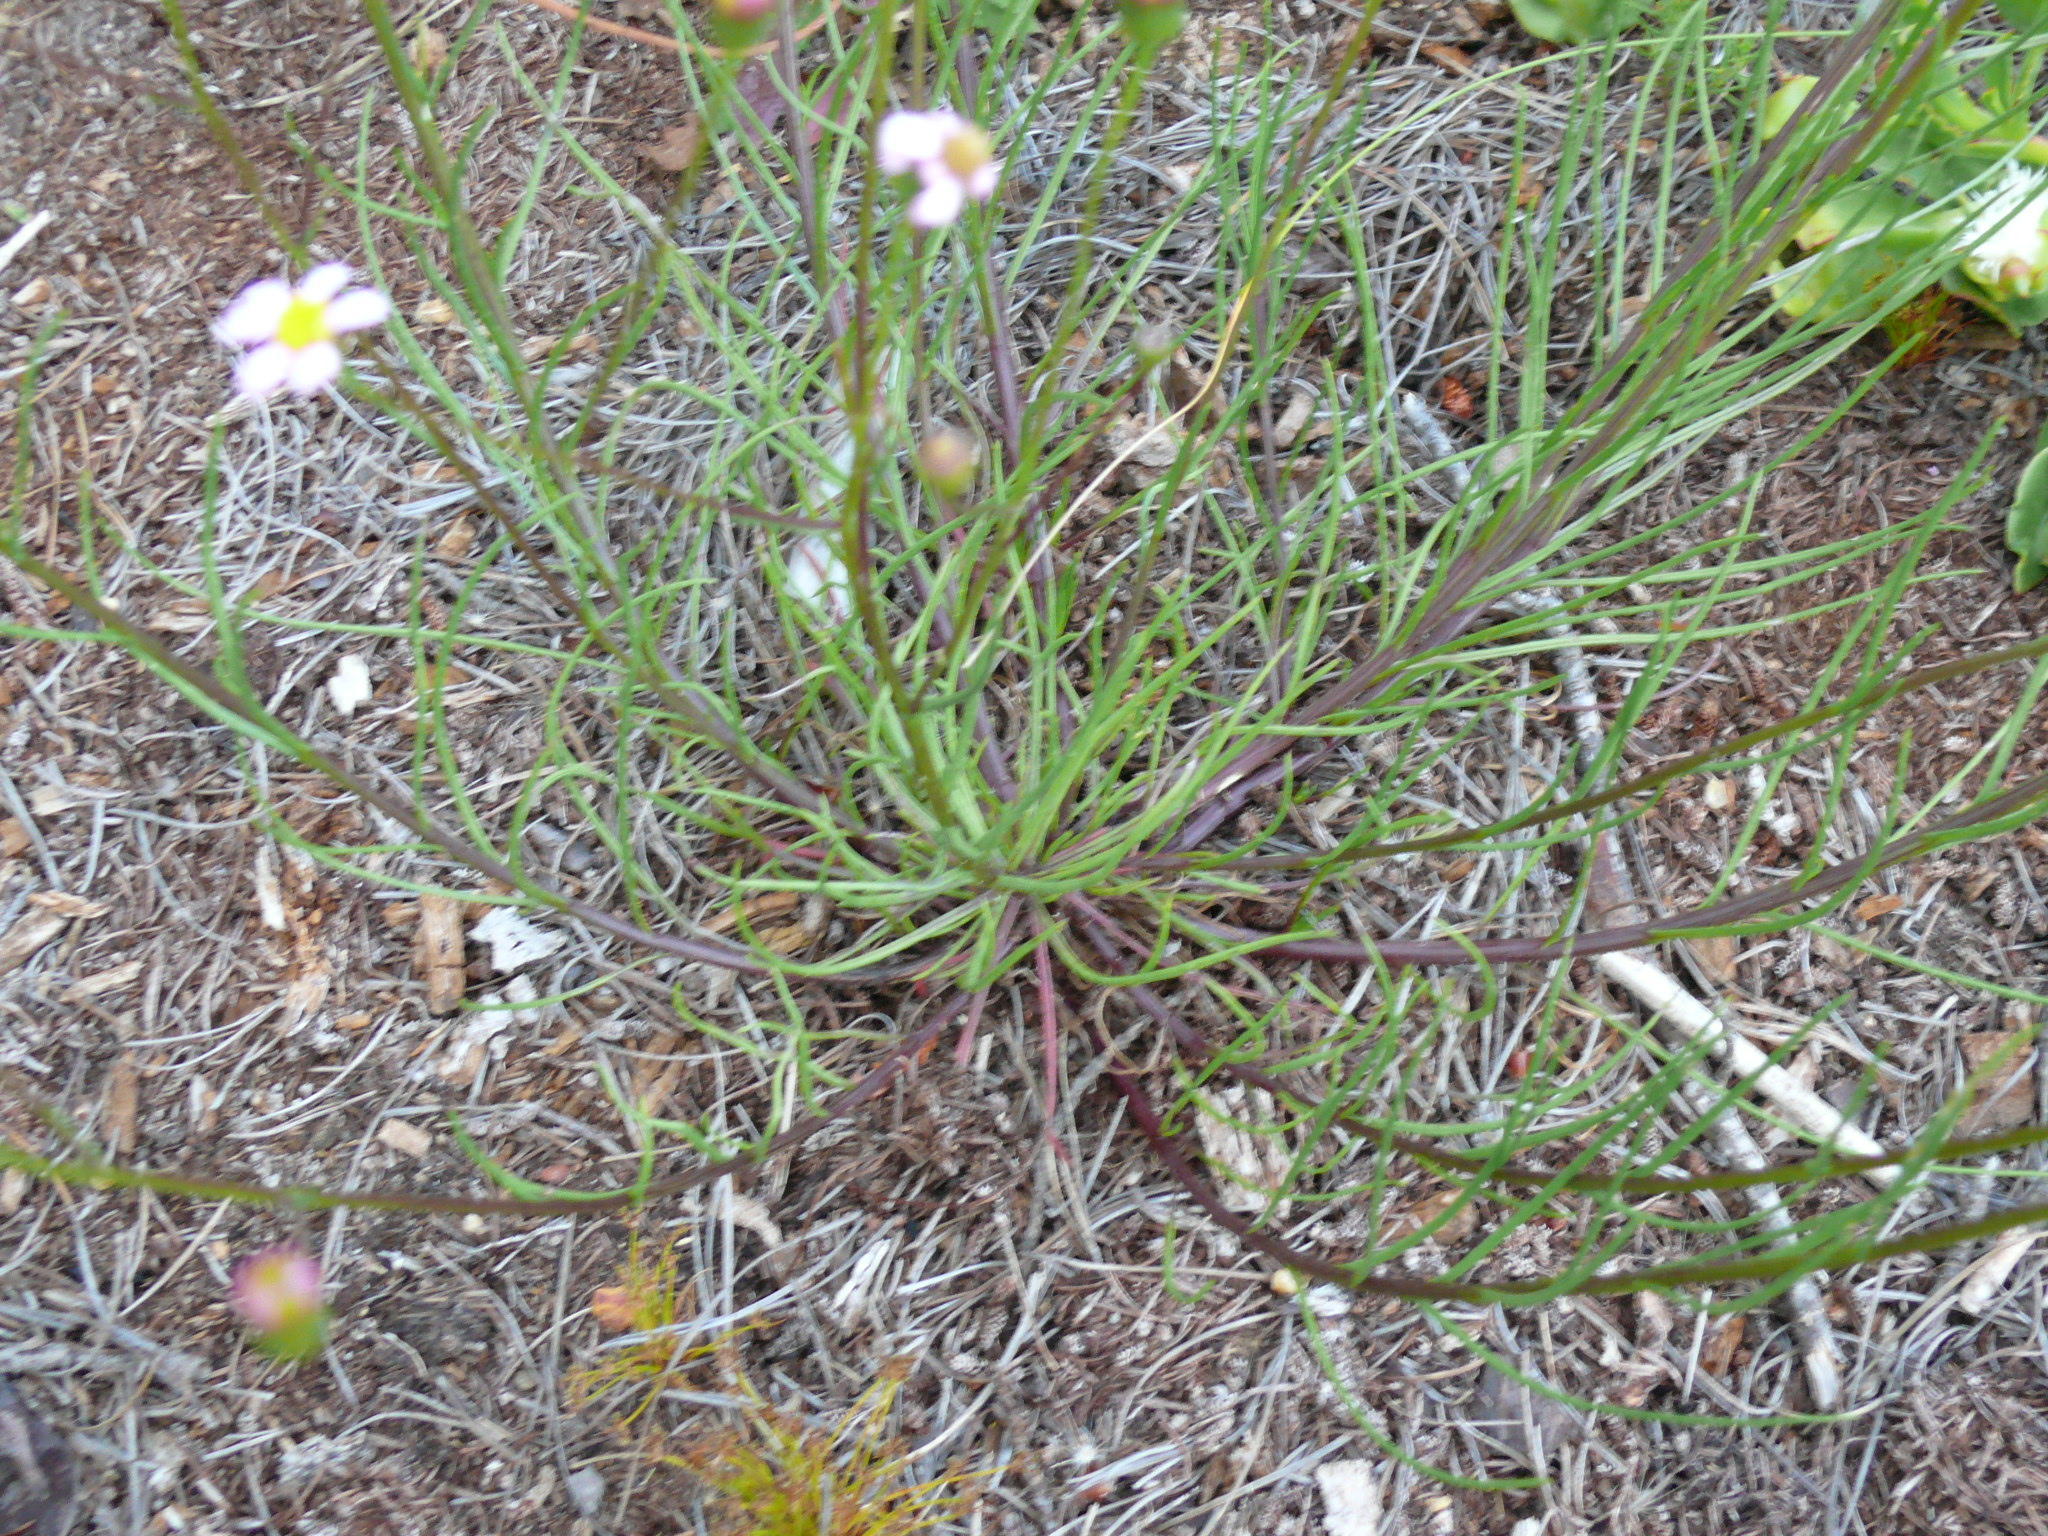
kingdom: Plantae
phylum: Tracheophyta
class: Magnoliopsida
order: Asterales
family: Asteraceae
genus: Senecio
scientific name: Senecio umbellatus
